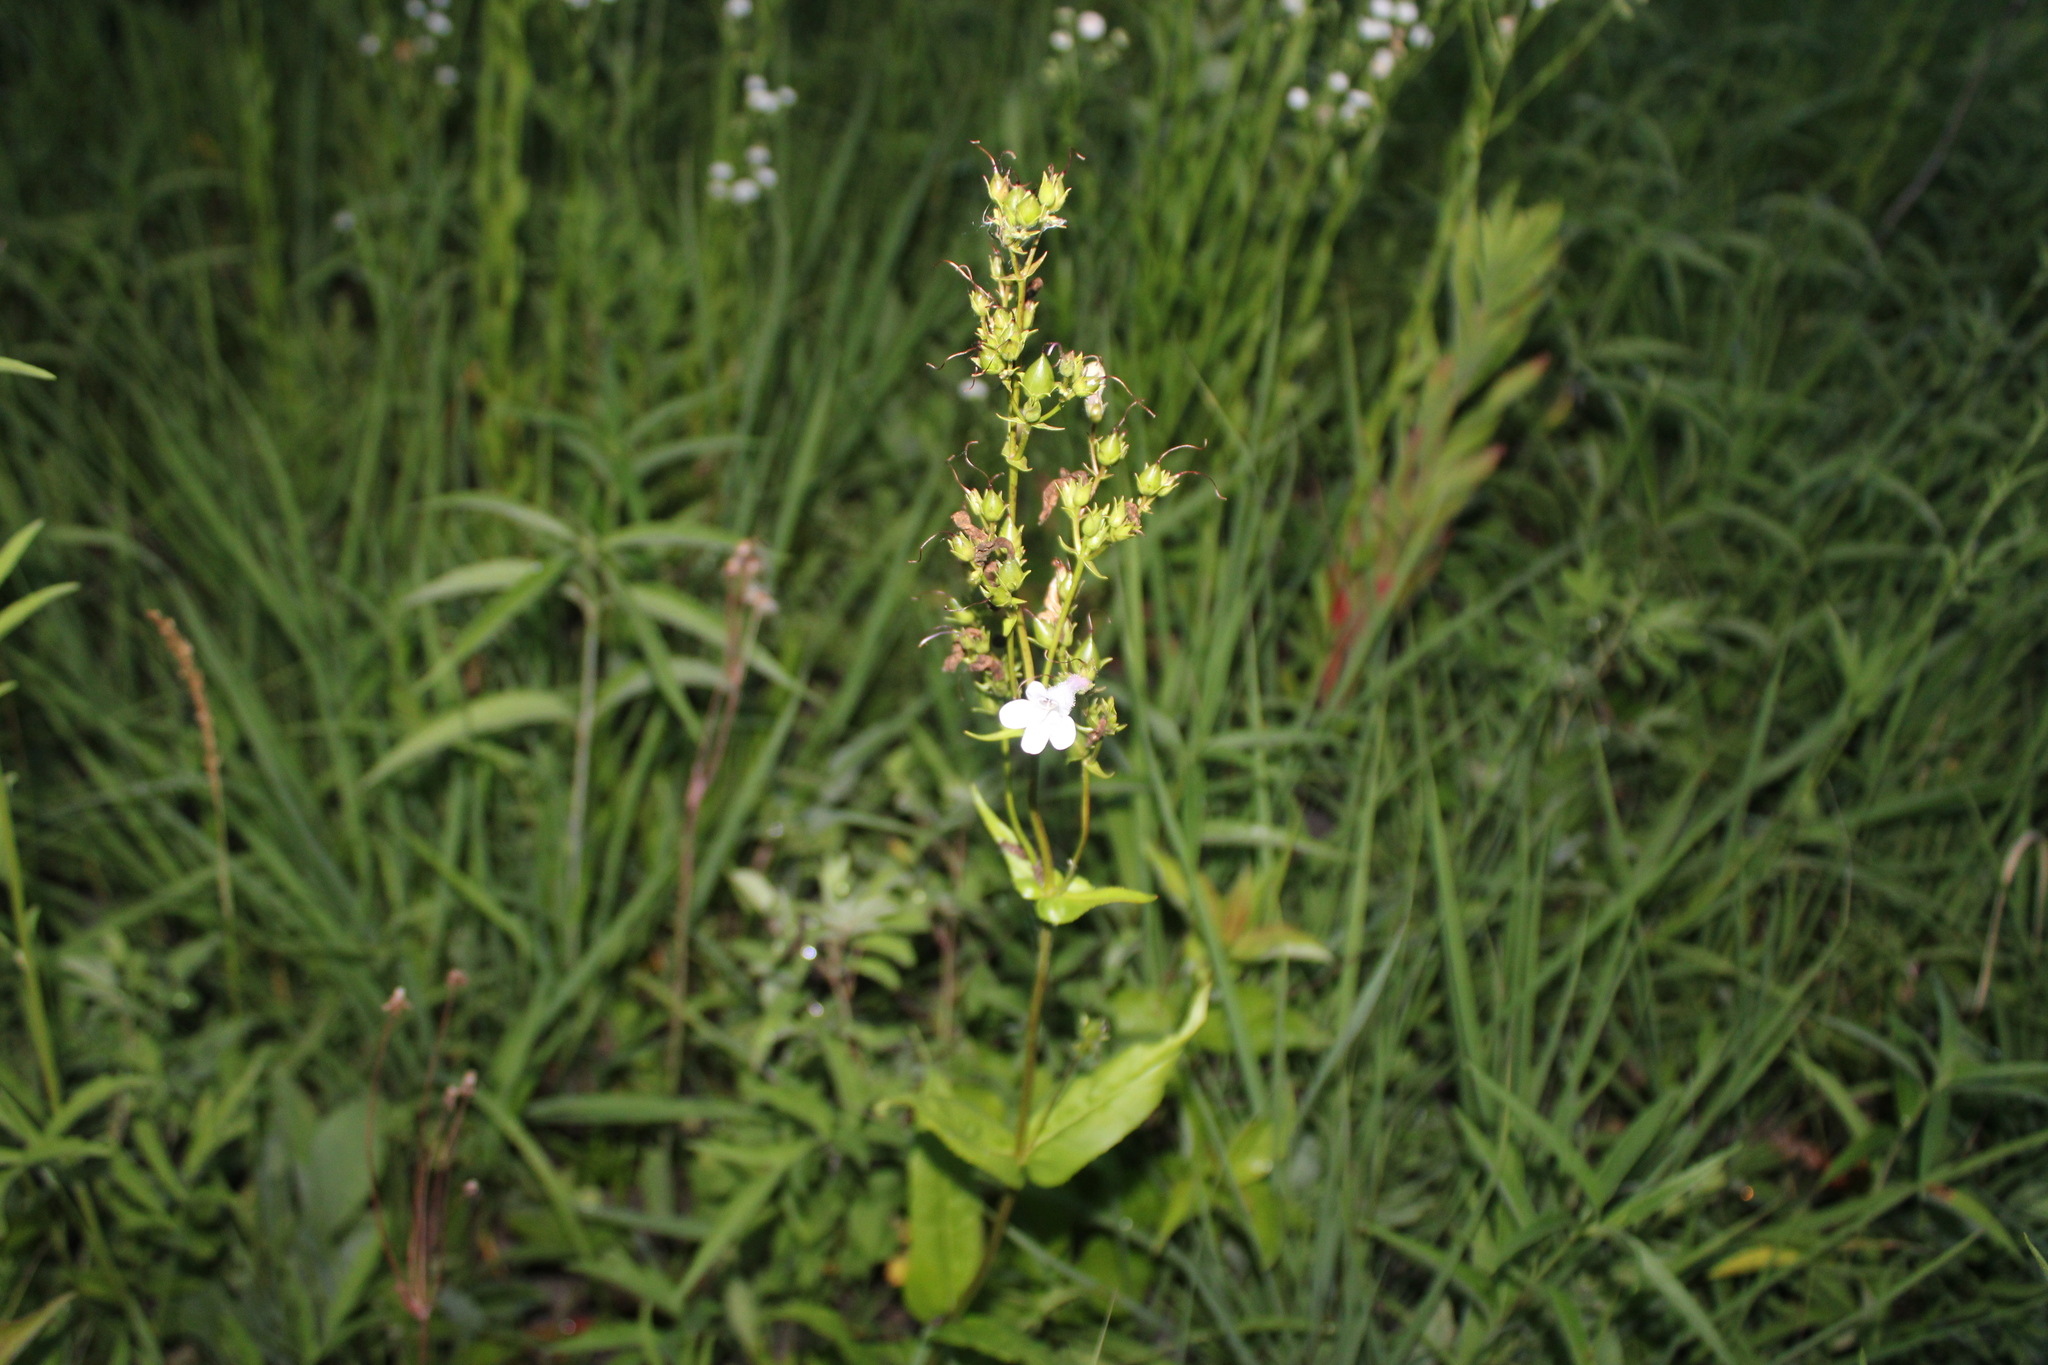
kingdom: Plantae
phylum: Tracheophyta
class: Magnoliopsida
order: Lamiales
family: Plantaginaceae
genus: Penstemon
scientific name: Penstemon digitalis
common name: Foxglove beardtongue
